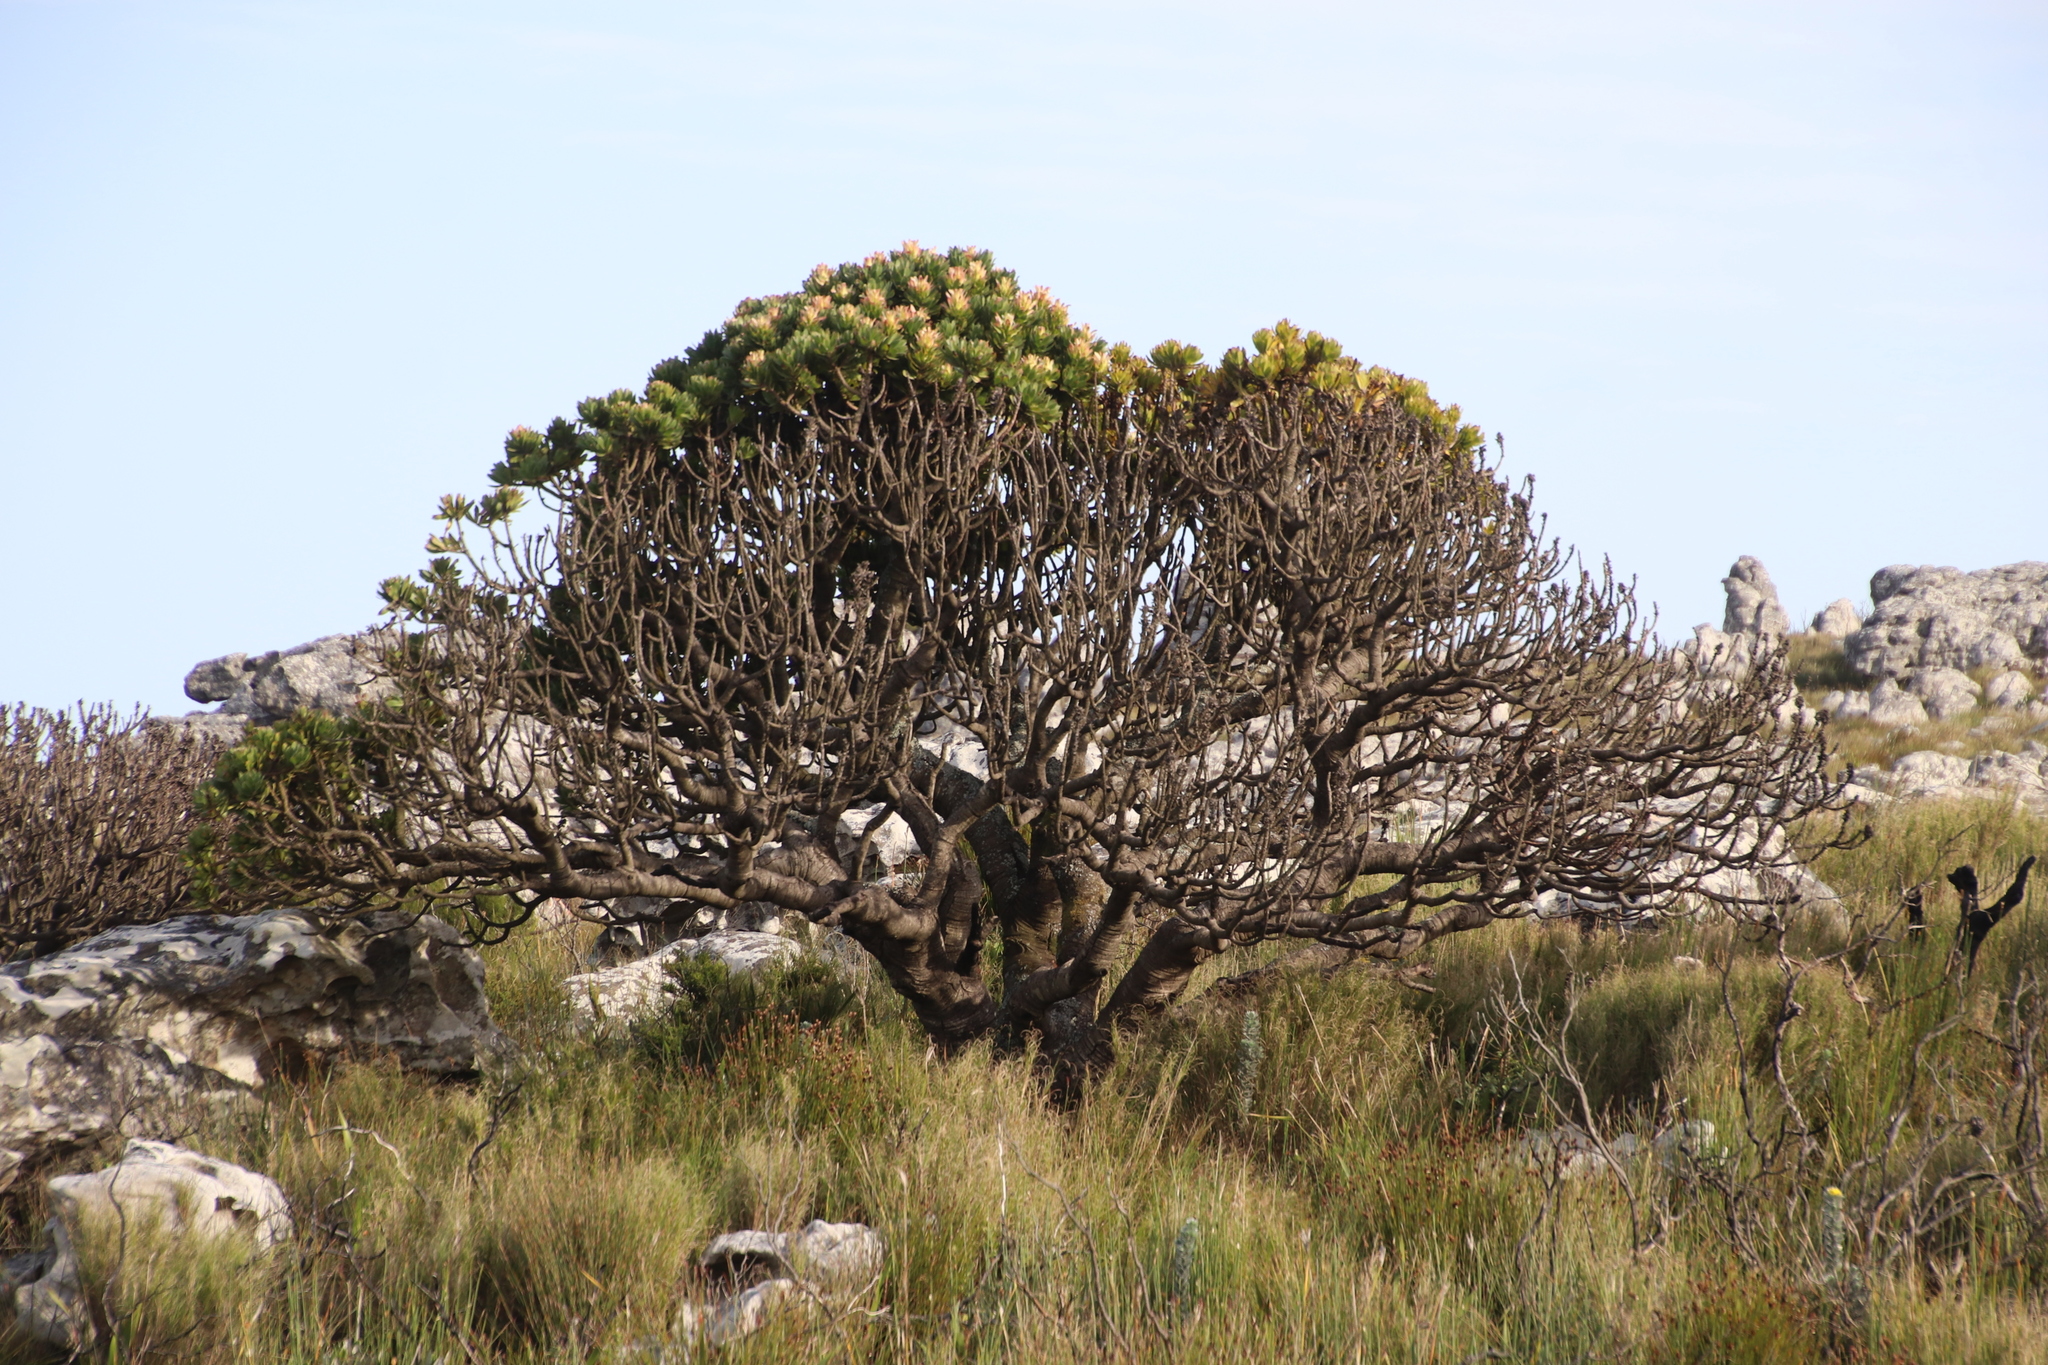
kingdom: Plantae
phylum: Tracheophyta
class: Magnoliopsida
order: Proteales
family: Proteaceae
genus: Mimetes
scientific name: Mimetes fimbriifolius
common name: Fringed bottlebrush
